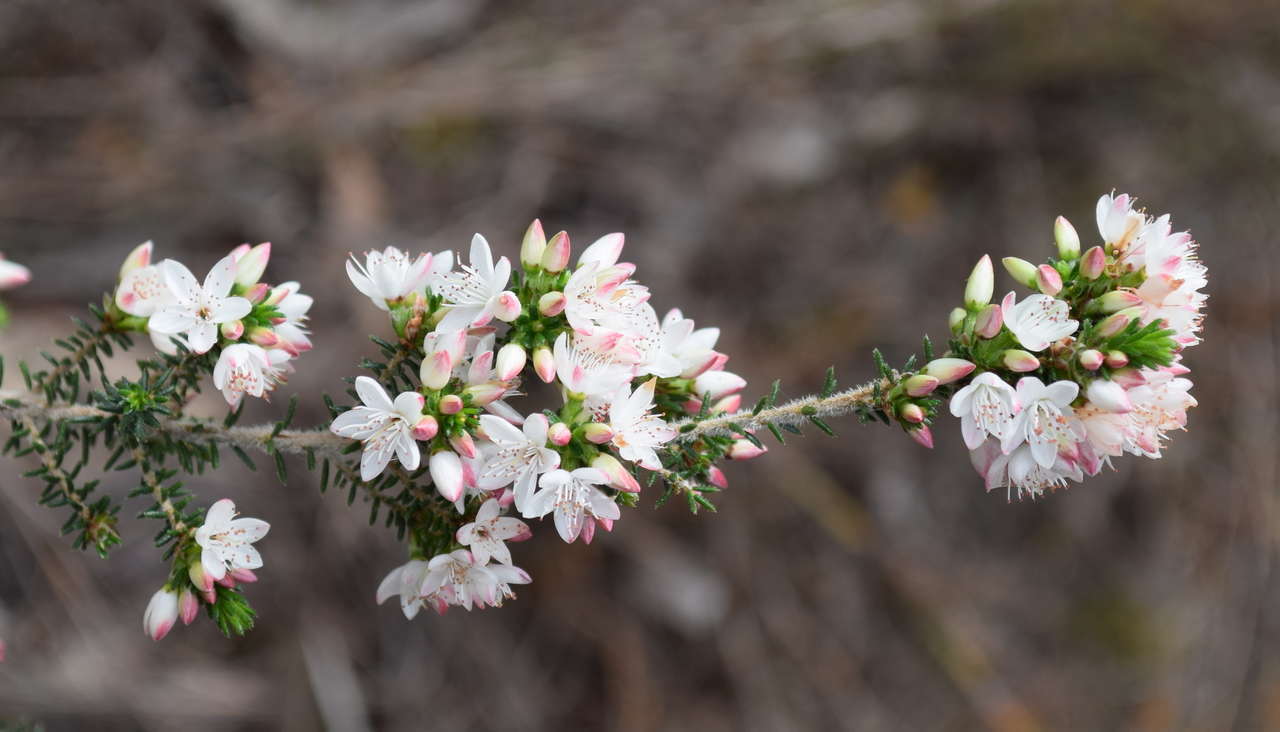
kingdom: Plantae
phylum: Tracheophyta
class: Magnoliopsida
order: Myrtales
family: Myrtaceae
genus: Calytrix
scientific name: Calytrix alpestris
